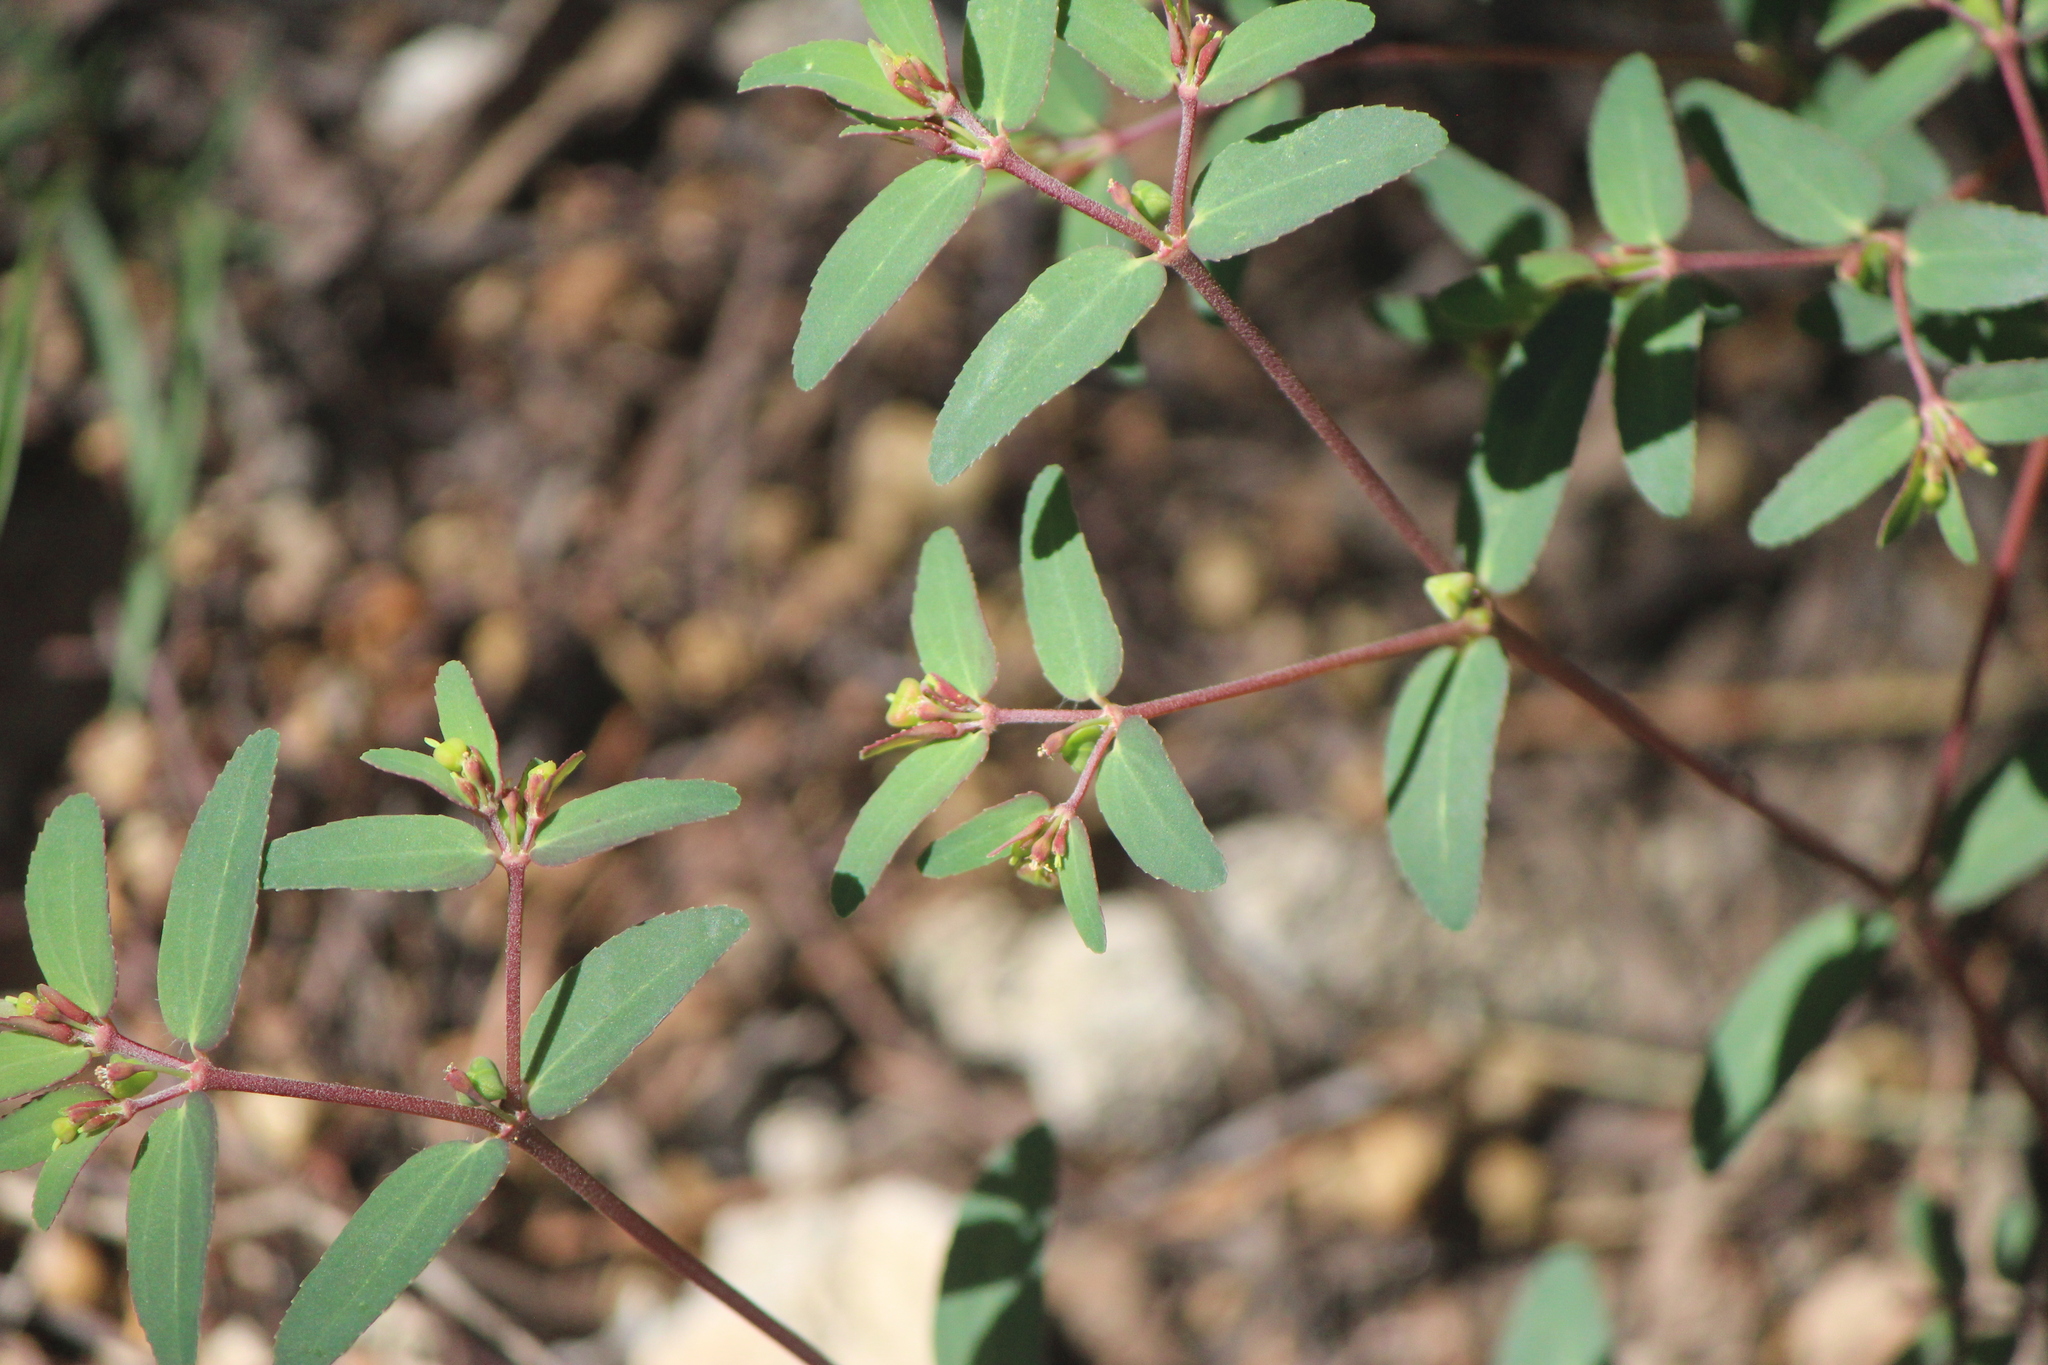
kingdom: Plantae
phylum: Tracheophyta
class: Magnoliopsida
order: Malpighiales
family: Euphorbiaceae
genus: Euphorbia
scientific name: Euphorbia nutans
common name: Eyebane
